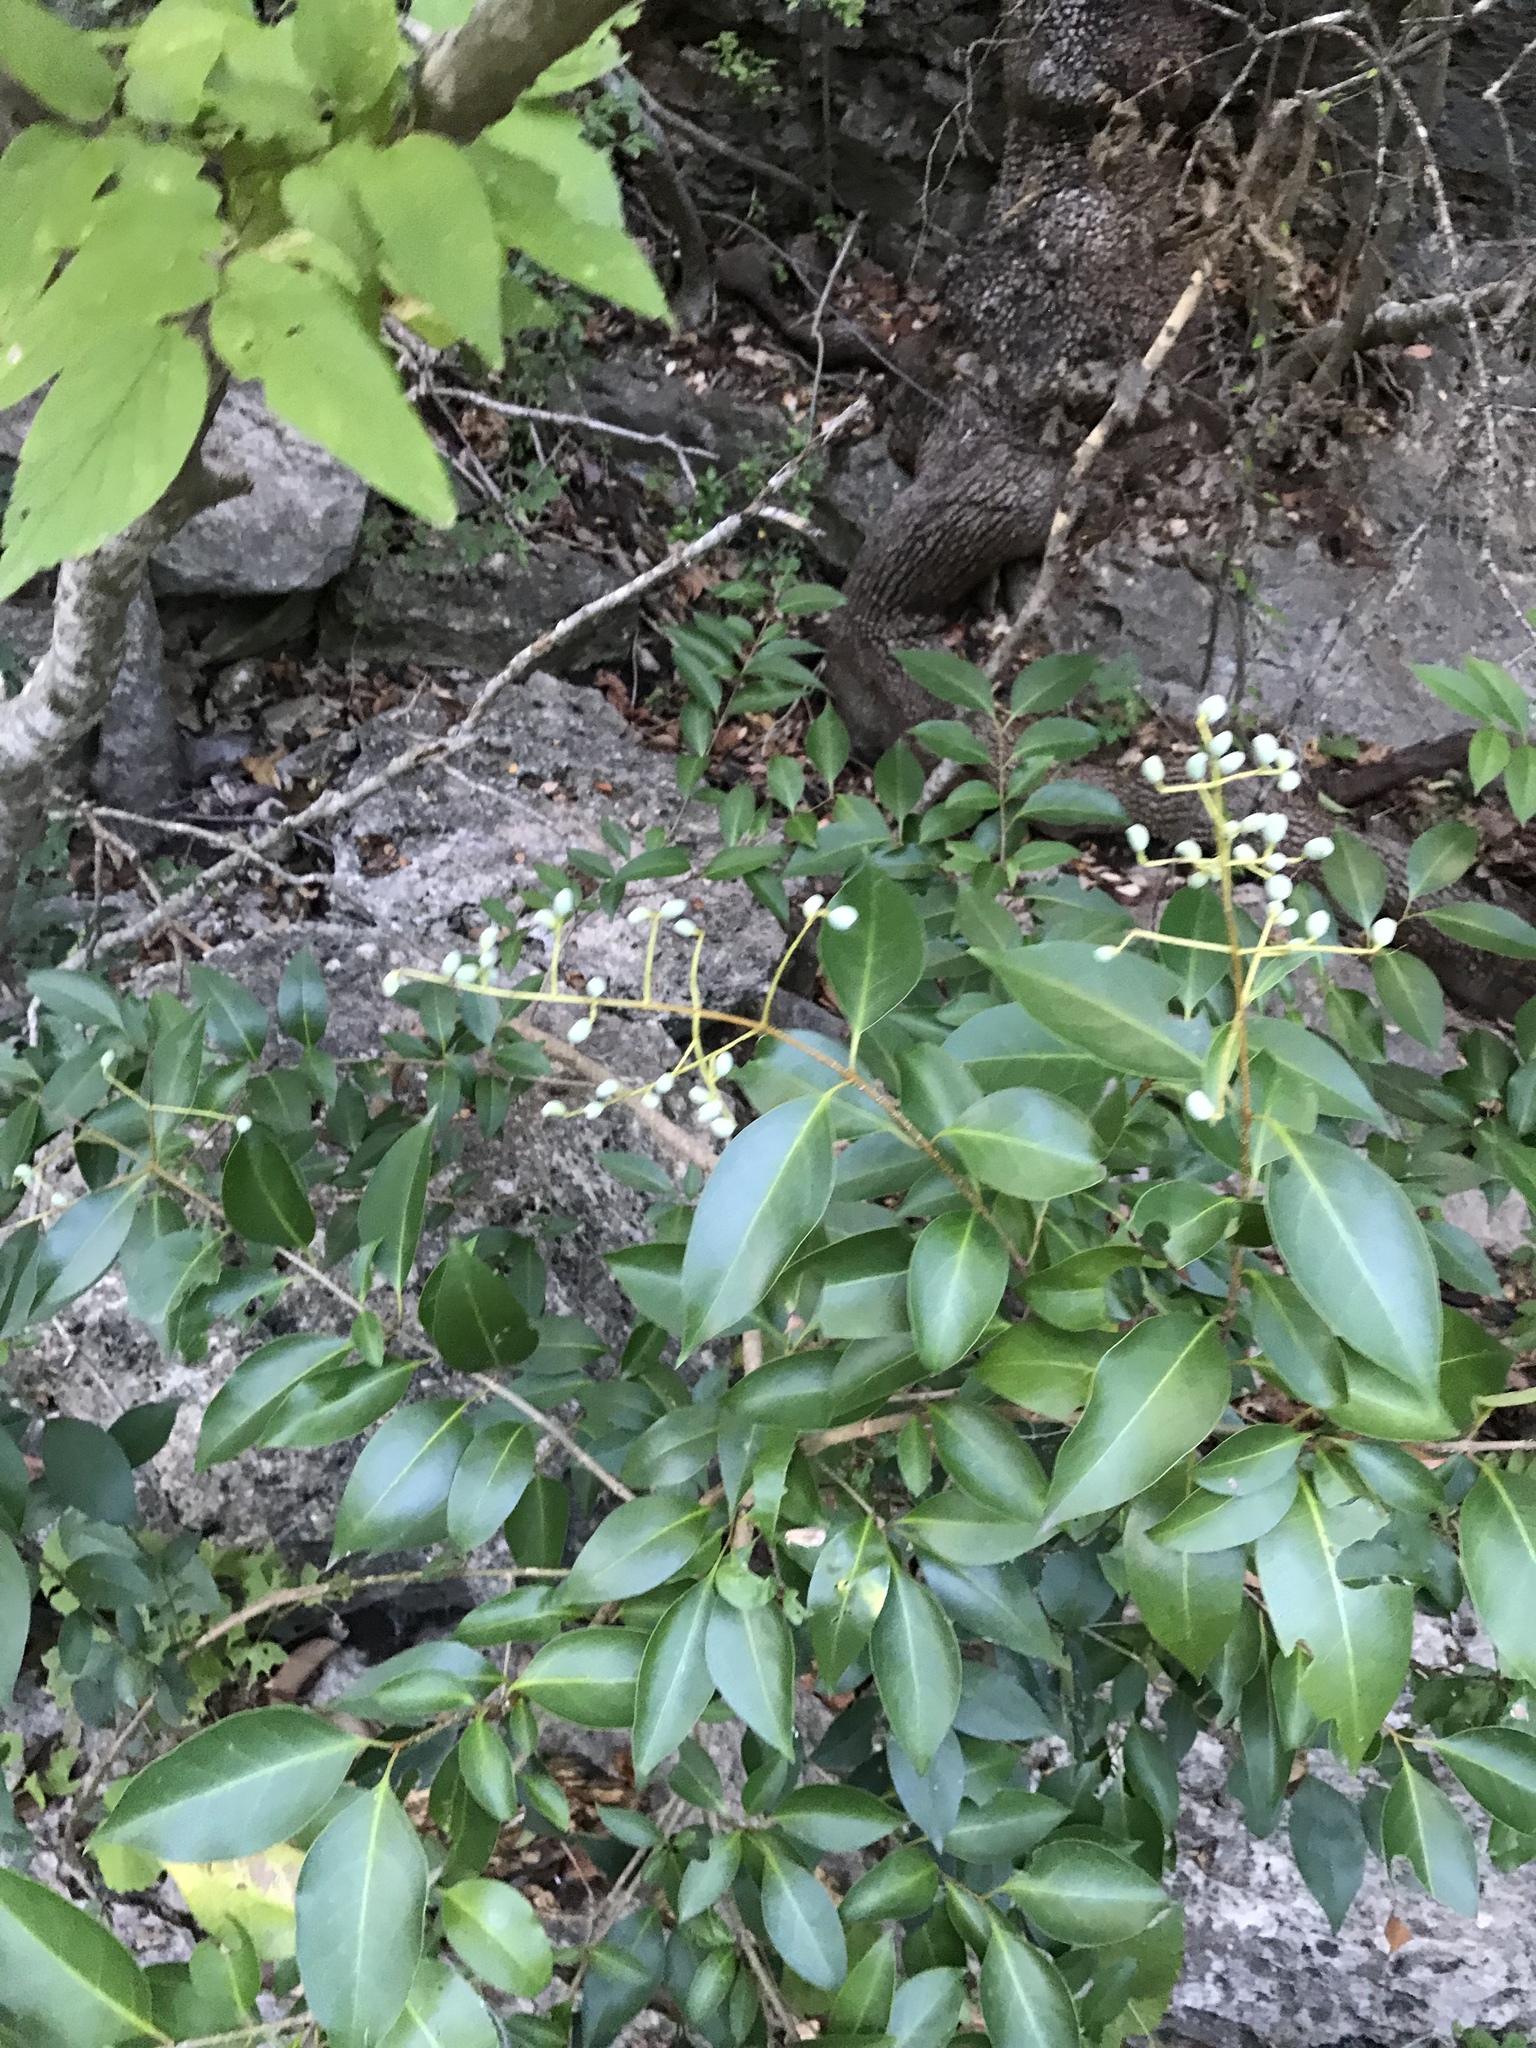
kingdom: Plantae
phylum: Tracheophyta
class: Magnoliopsida
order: Lamiales
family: Oleaceae
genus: Ligustrum
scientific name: Ligustrum lucidum
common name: Glossy privet
